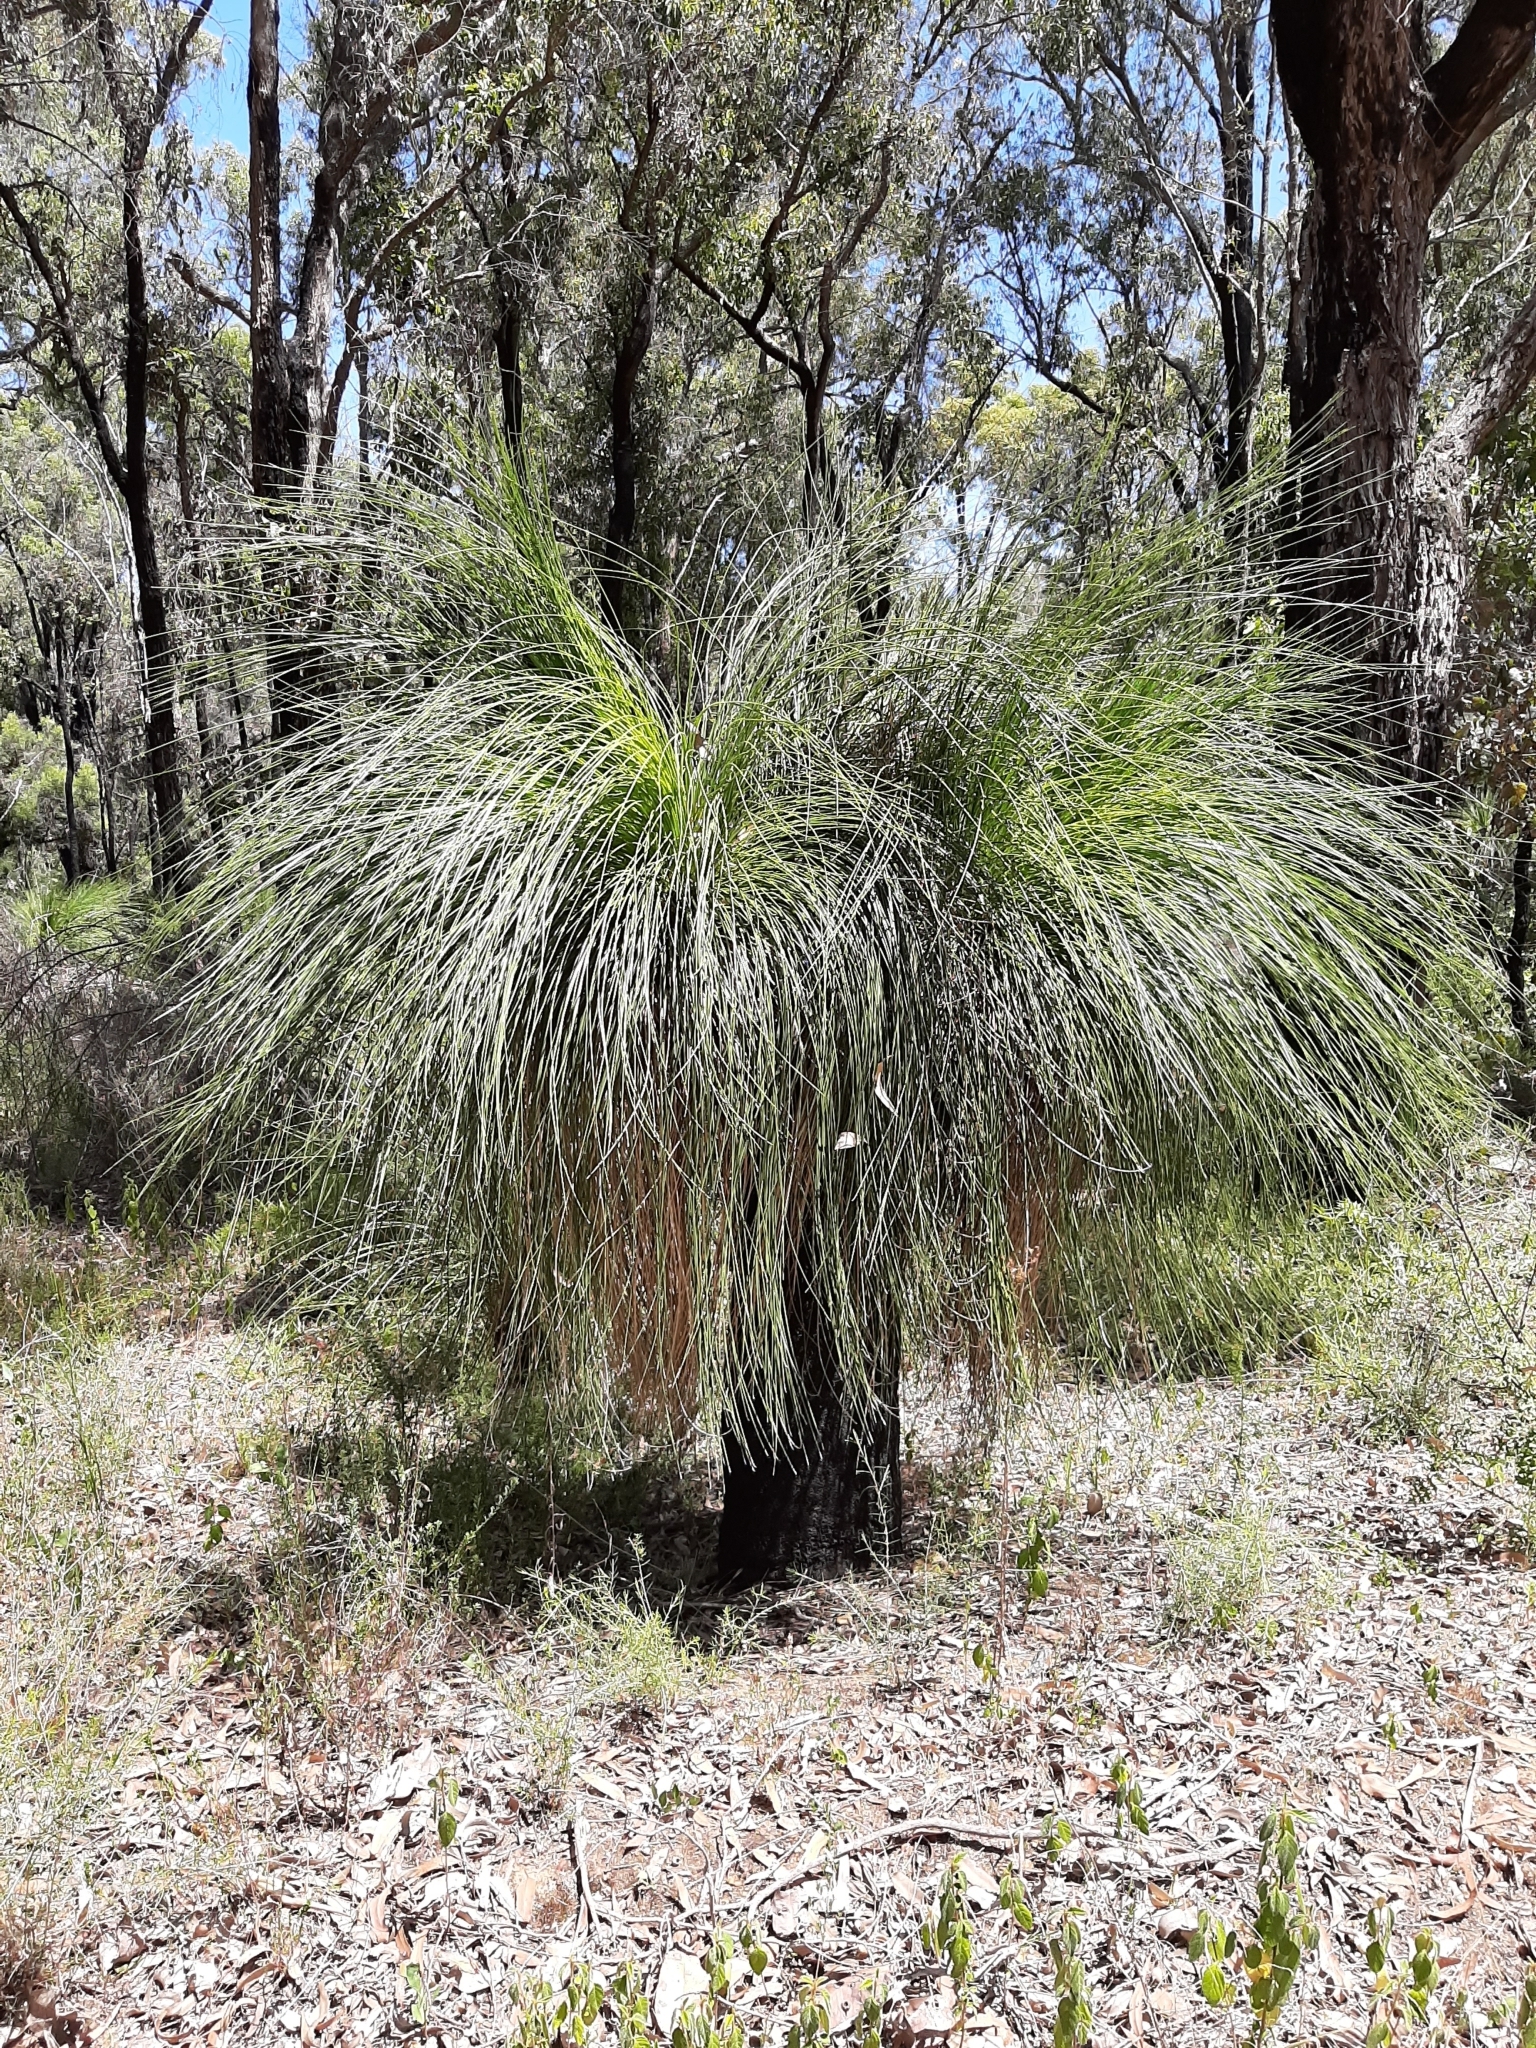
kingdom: Plantae
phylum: Tracheophyta
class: Liliopsida
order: Asparagales
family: Asphodelaceae
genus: Xanthorrhoea
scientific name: Xanthorrhoea preissii
